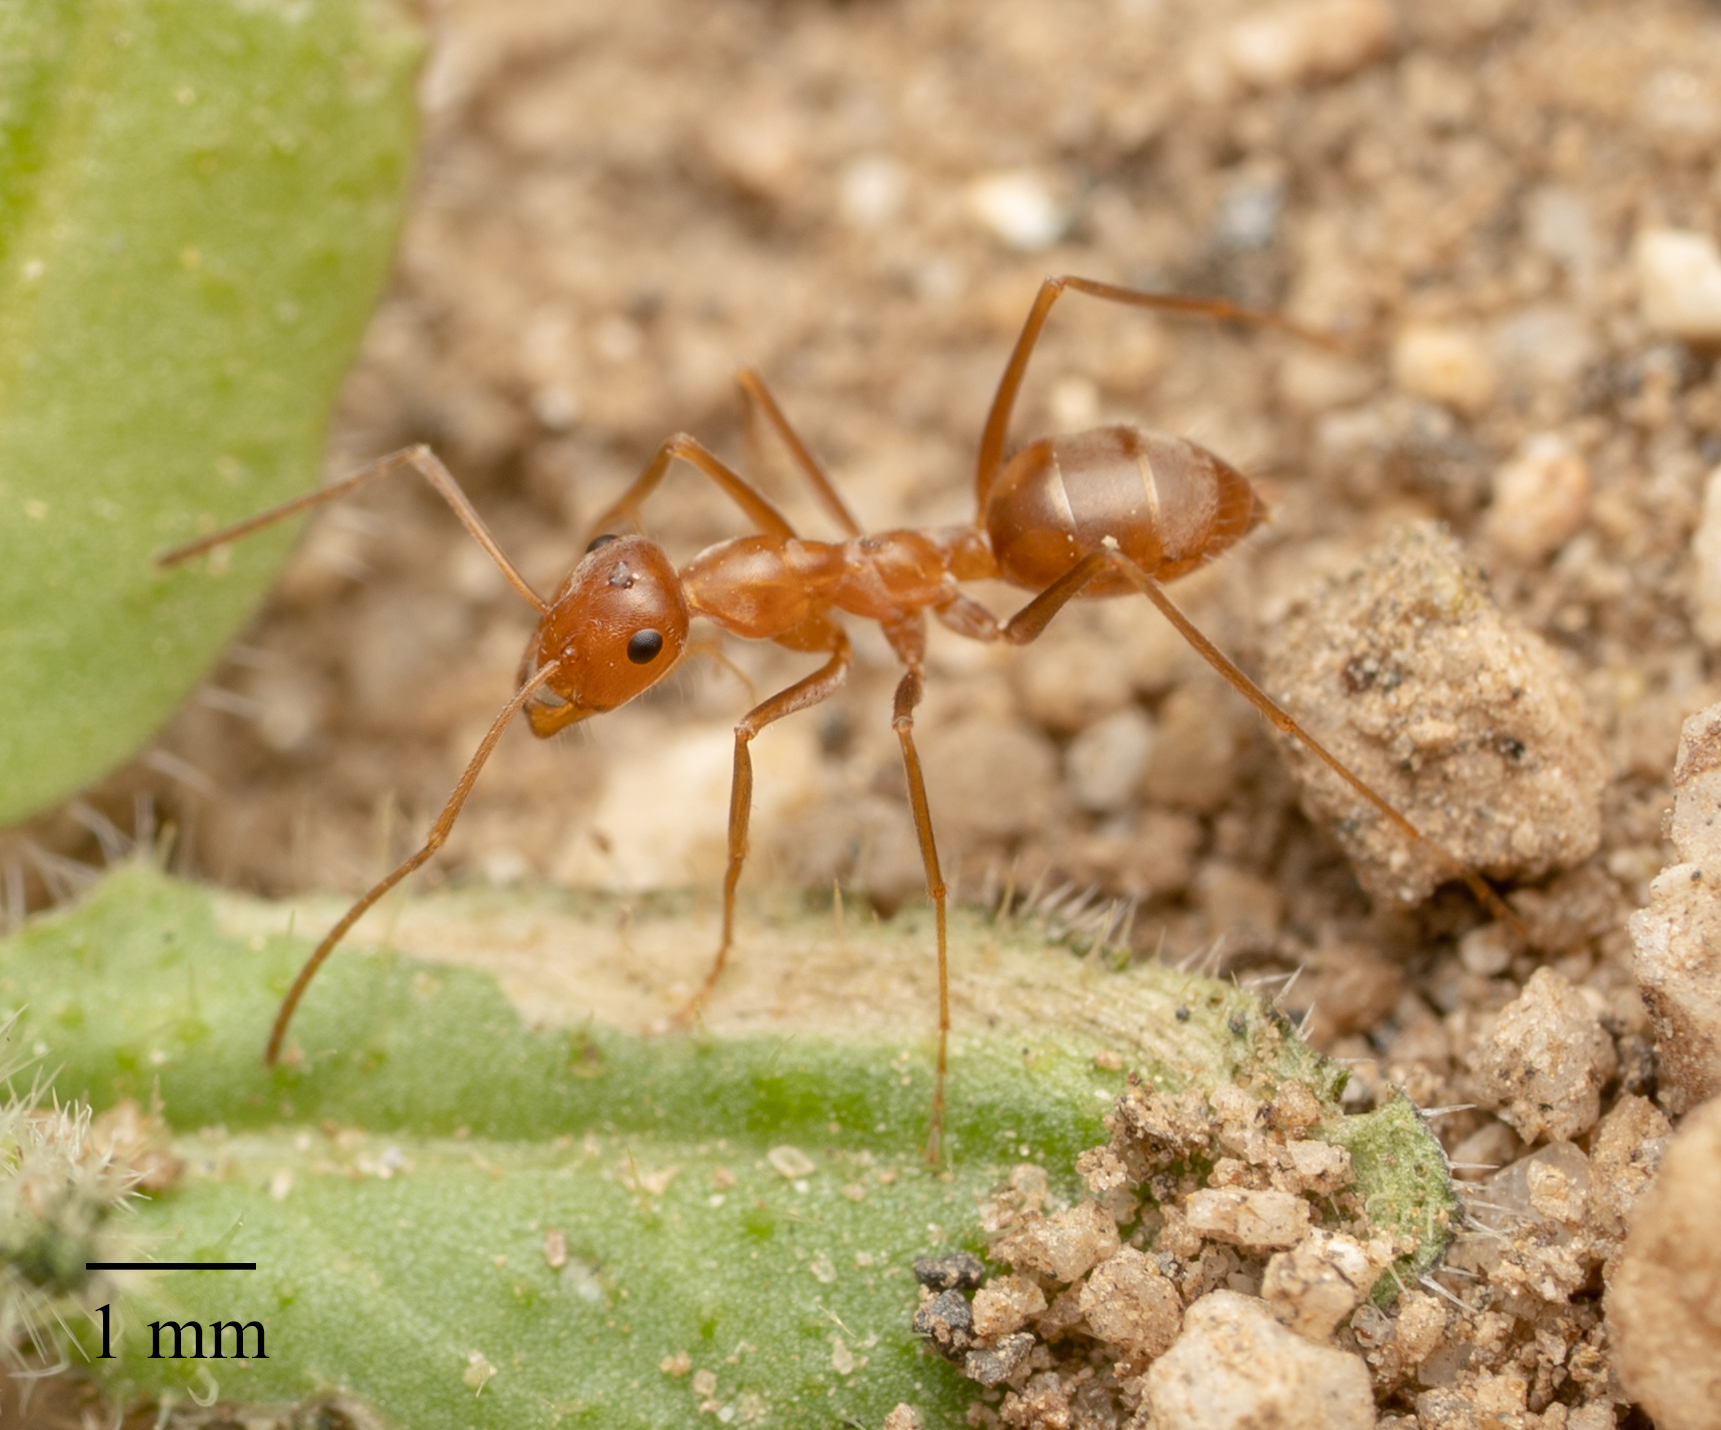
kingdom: Animalia
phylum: Arthropoda
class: Insecta
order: Hymenoptera
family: Formicidae
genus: Myrmecocystus
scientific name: Myrmecocystus wheeleri
